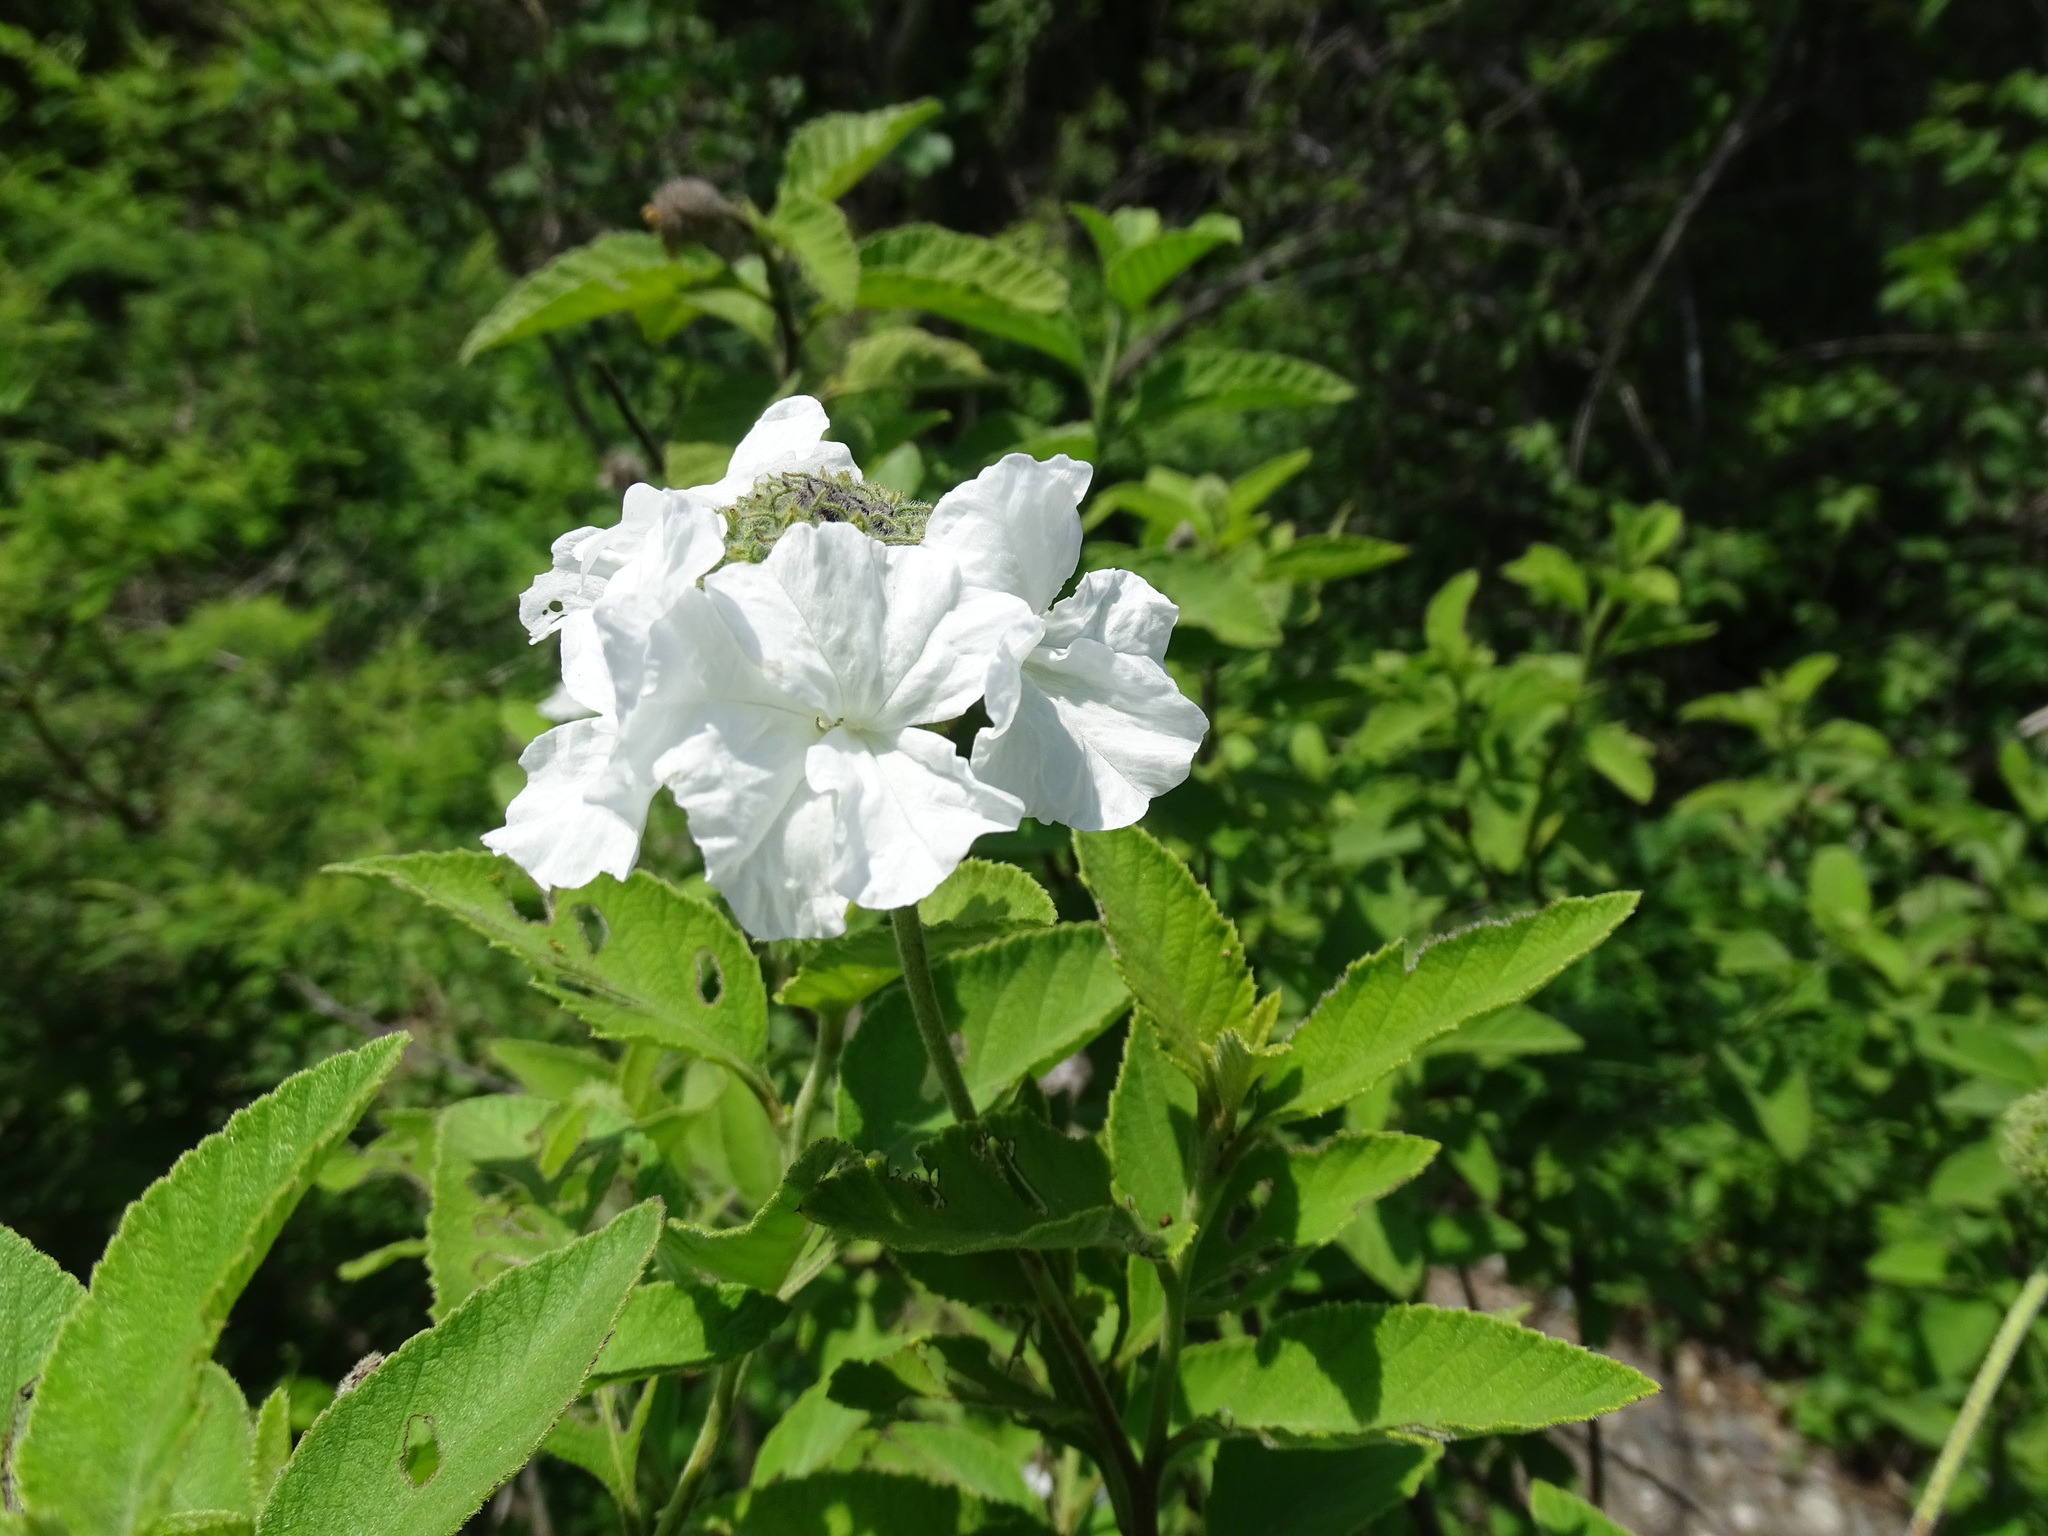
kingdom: Plantae
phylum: Tracheophyta
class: Magnoliopsida
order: Boraginales
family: Cordiaceae
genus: Varronia
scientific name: Varronia oaxacana
